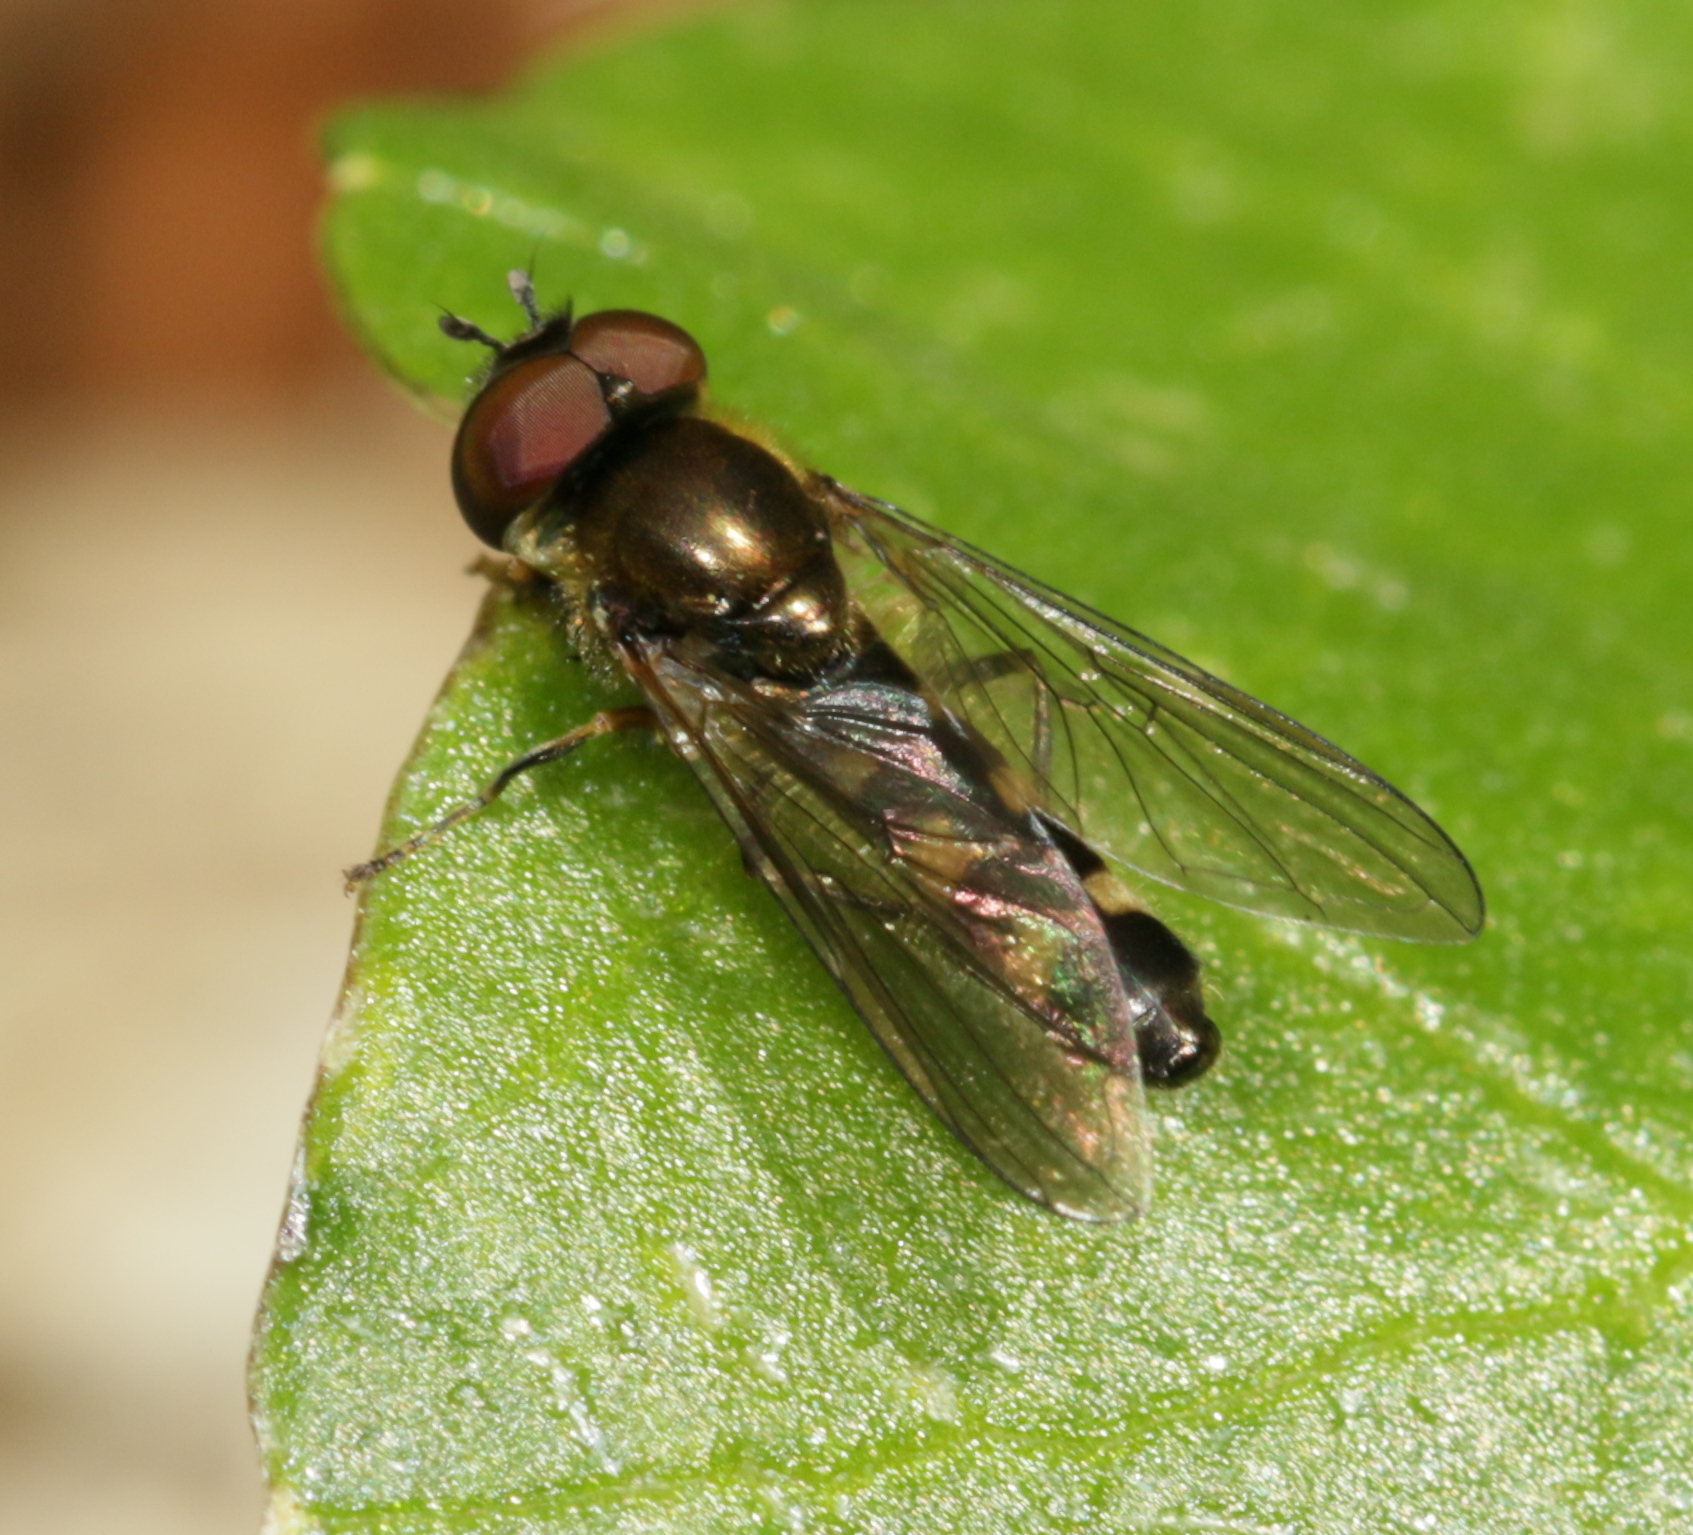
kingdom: Animalia
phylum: Arthropoda
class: Insecta
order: Diptera
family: Syrphidae
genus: Platycheirus
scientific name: Platycheirus splendidus
